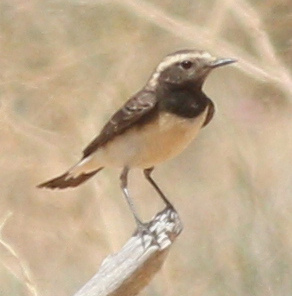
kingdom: Animalia
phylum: Chordata
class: Aves
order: Passeriformes
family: Muscicapidae
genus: Oenanthe
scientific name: Oenanthe pleschanka
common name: Pied wheatear
